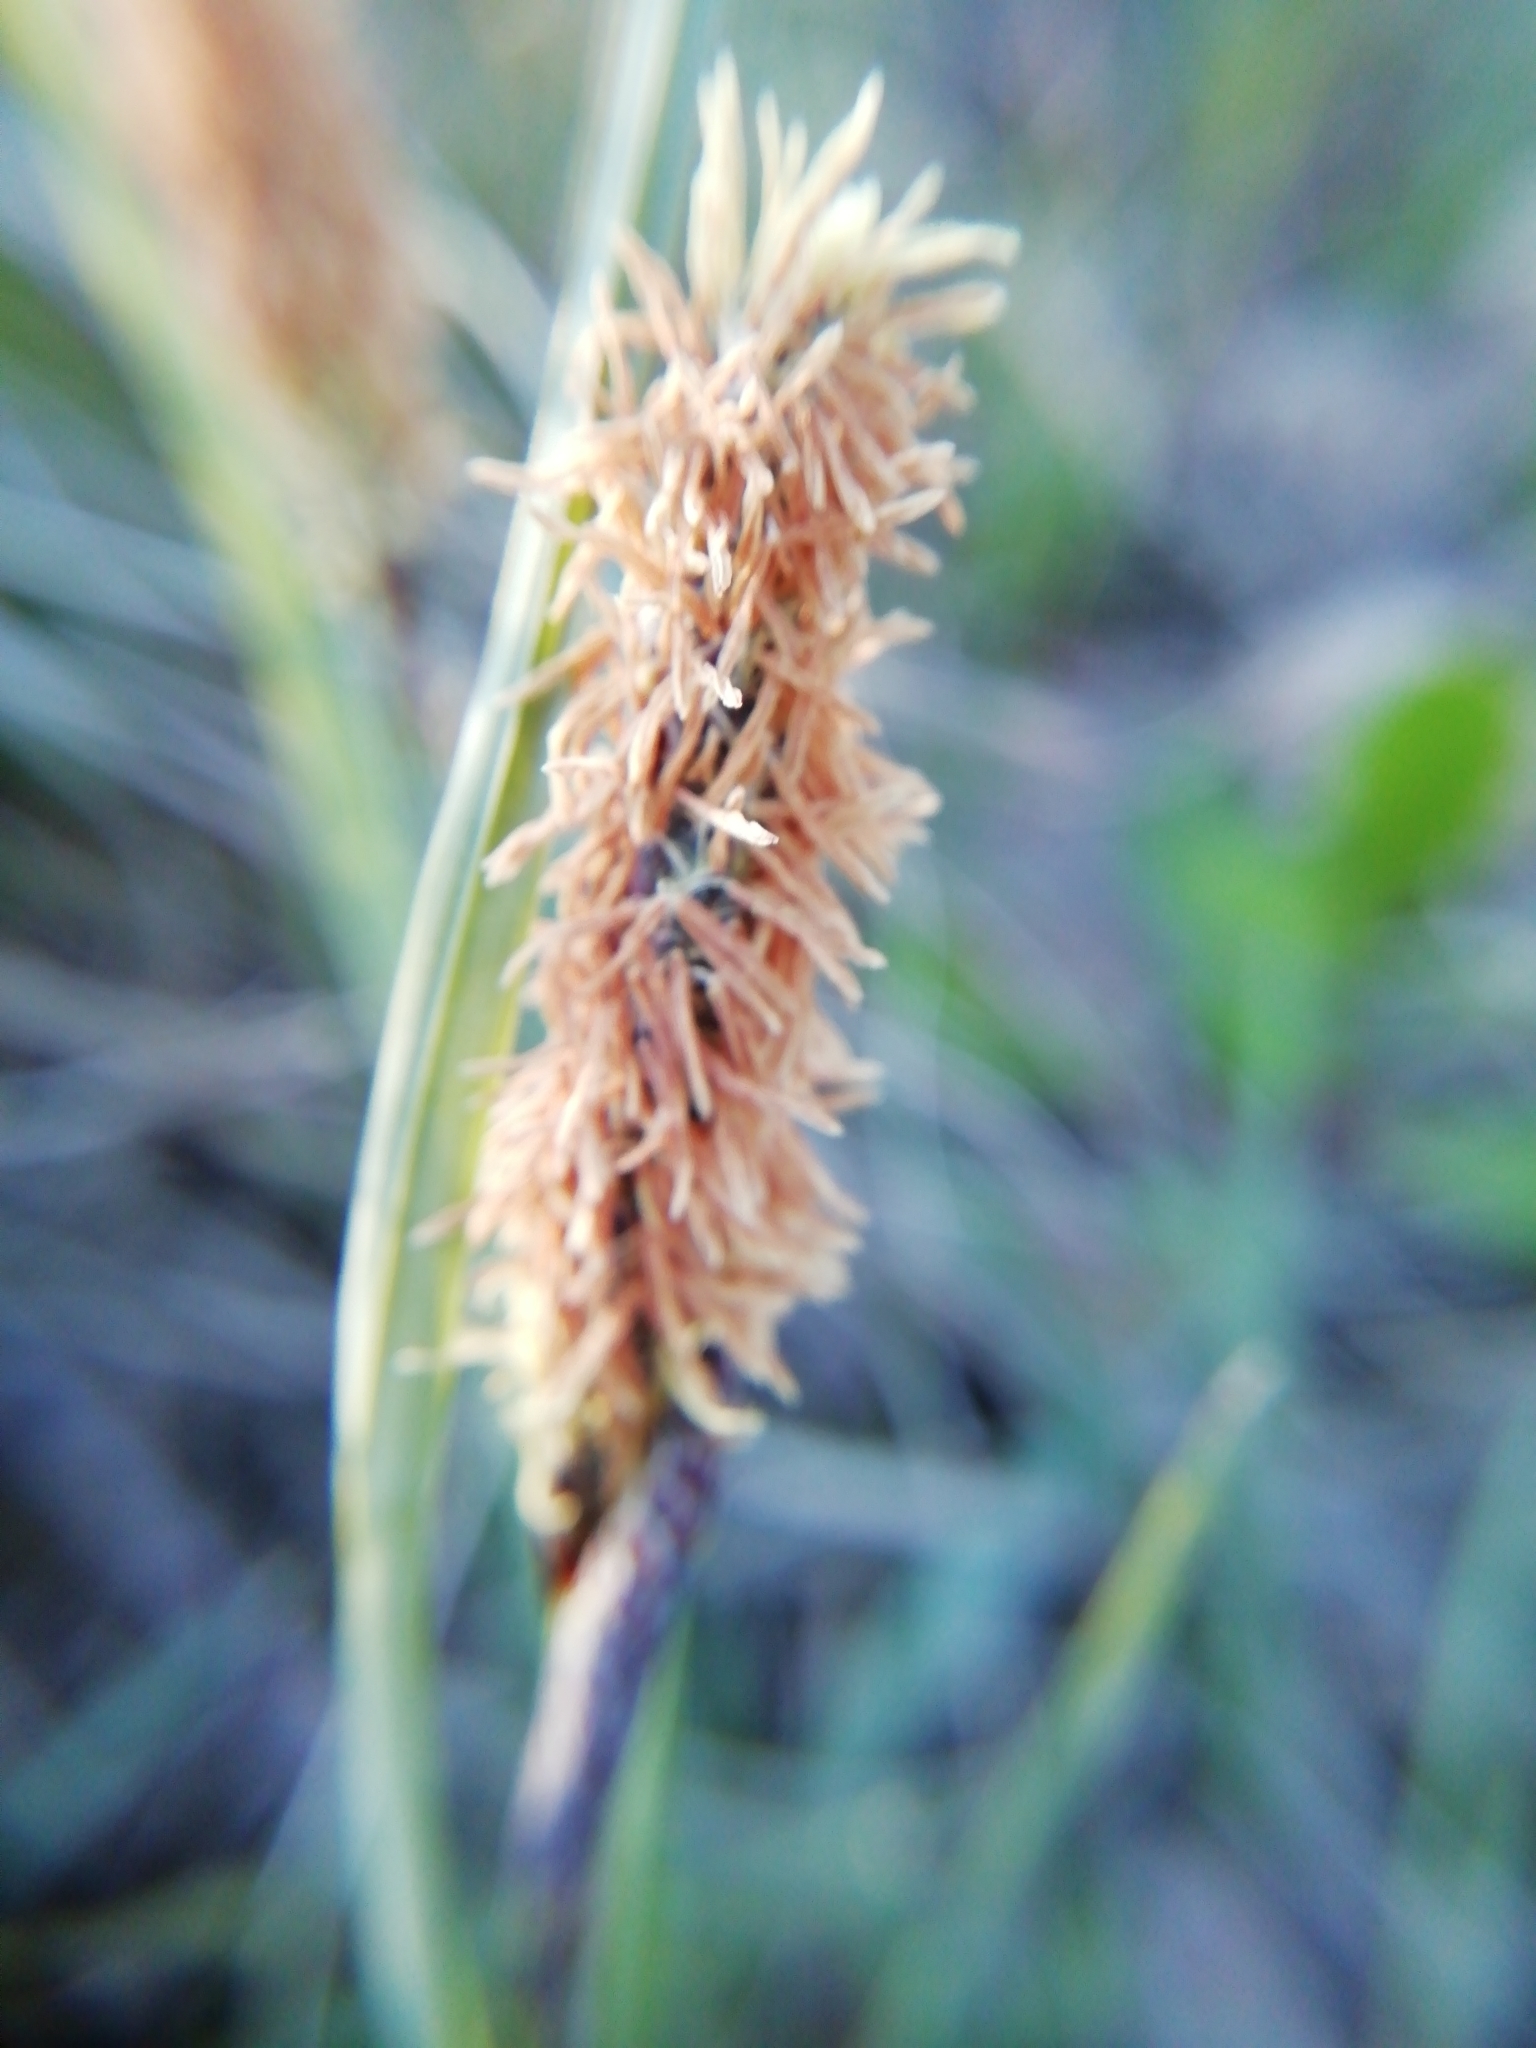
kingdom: Plantae
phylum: Tracheophyta
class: Liliopsida
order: Poales
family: Cyperaceae
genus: Carex
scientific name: Carex flacca
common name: Glaucous sedge
